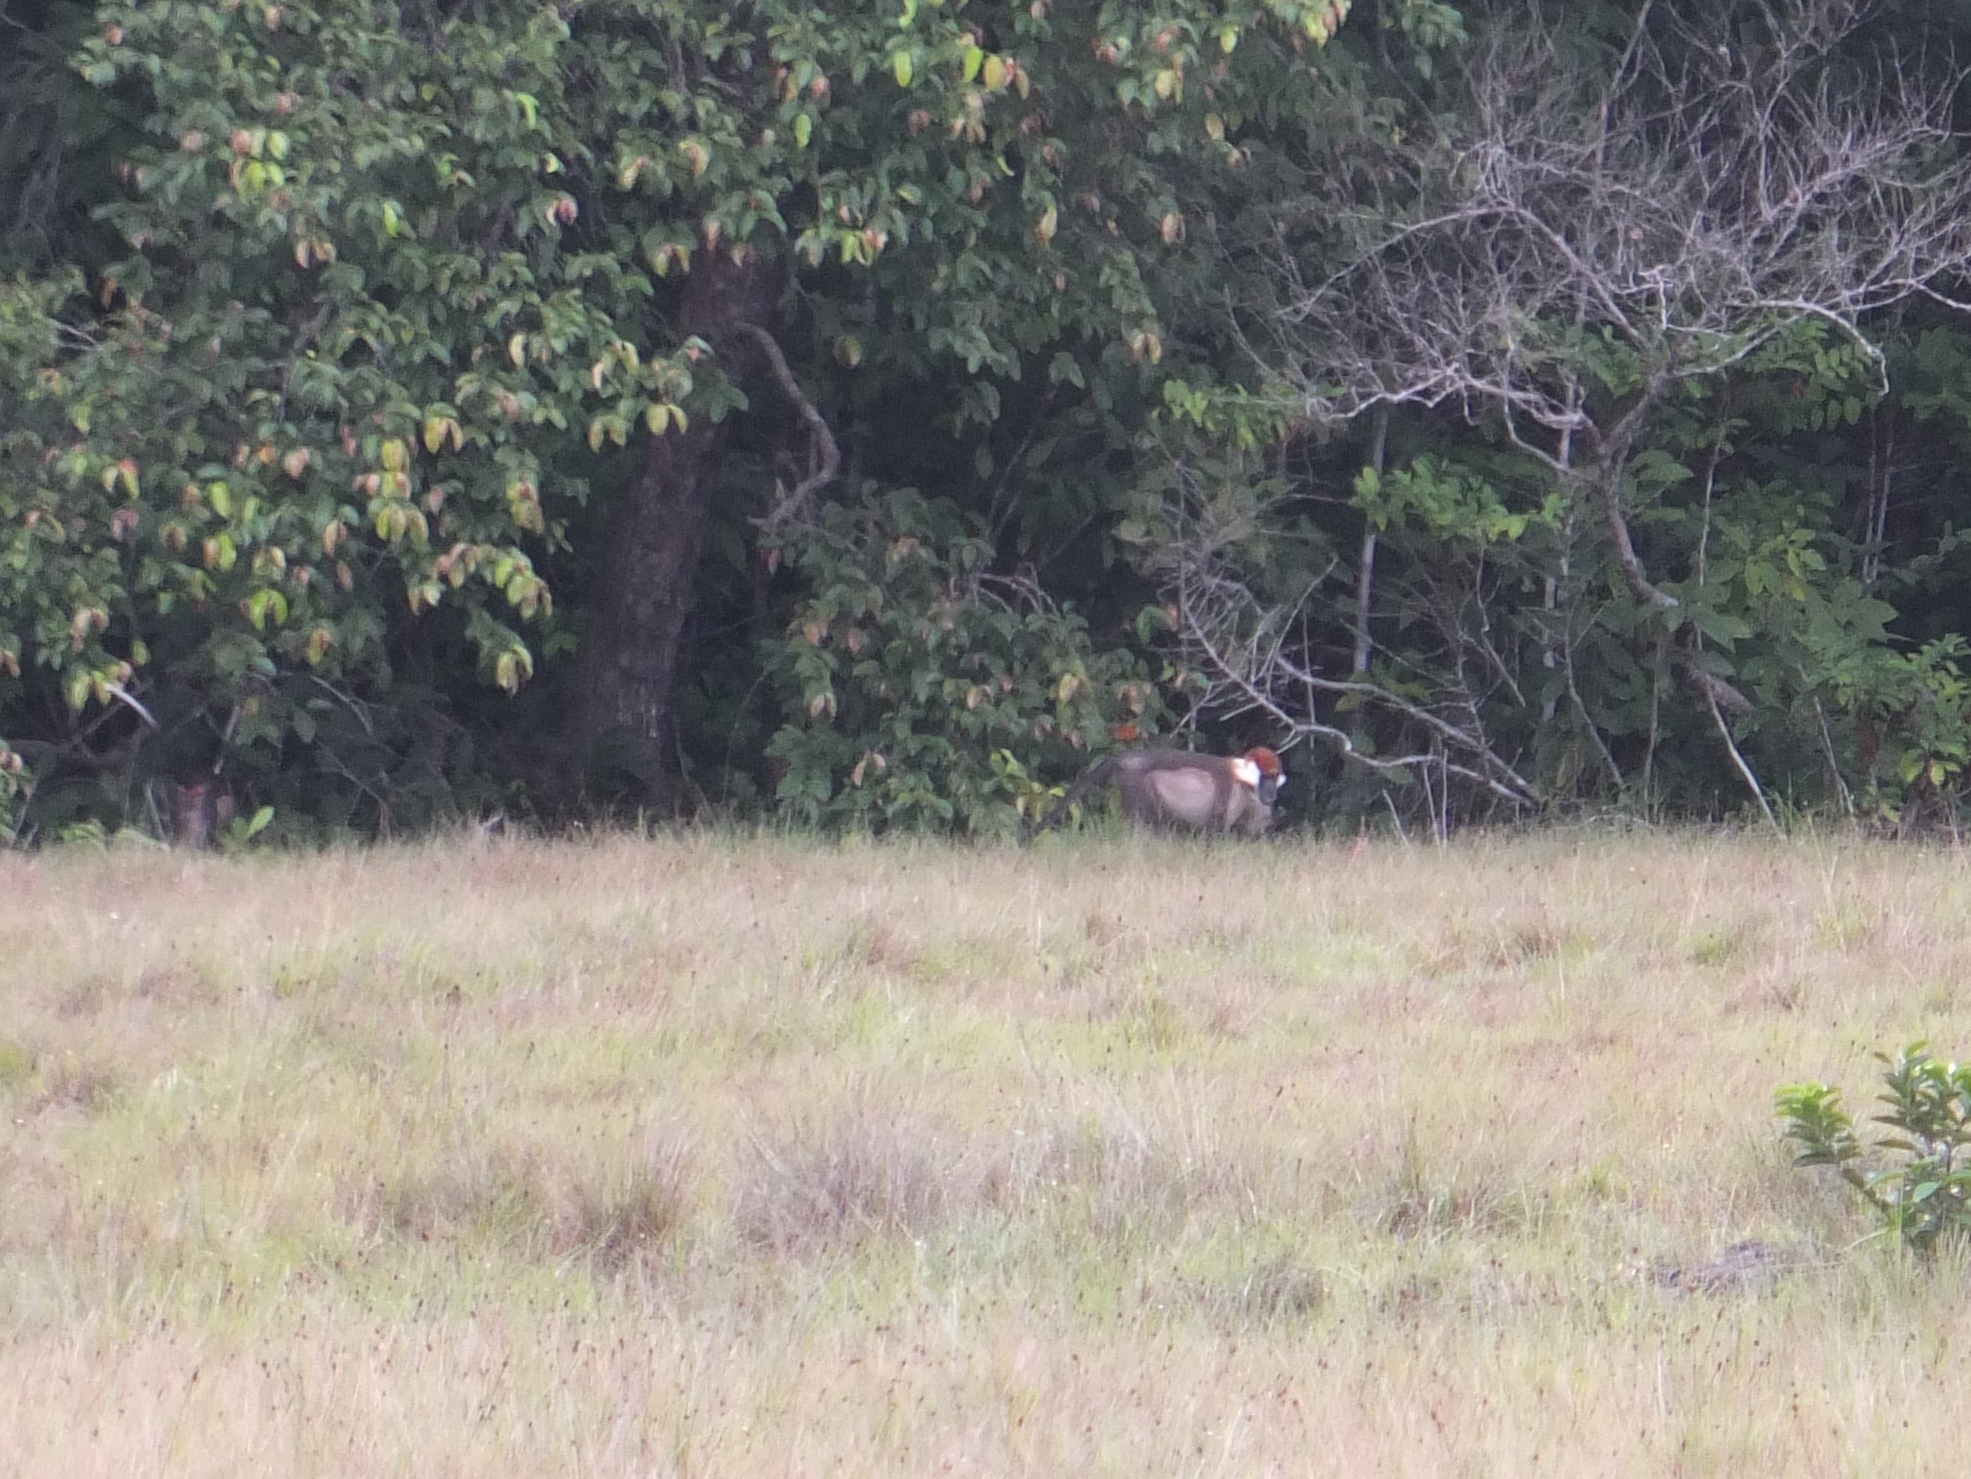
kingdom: Animalia
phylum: Chordata
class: Mammalia
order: Primates
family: Cercopithecidae
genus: Cercocebus
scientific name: Cercocebus torquatus
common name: Collared mangabey
